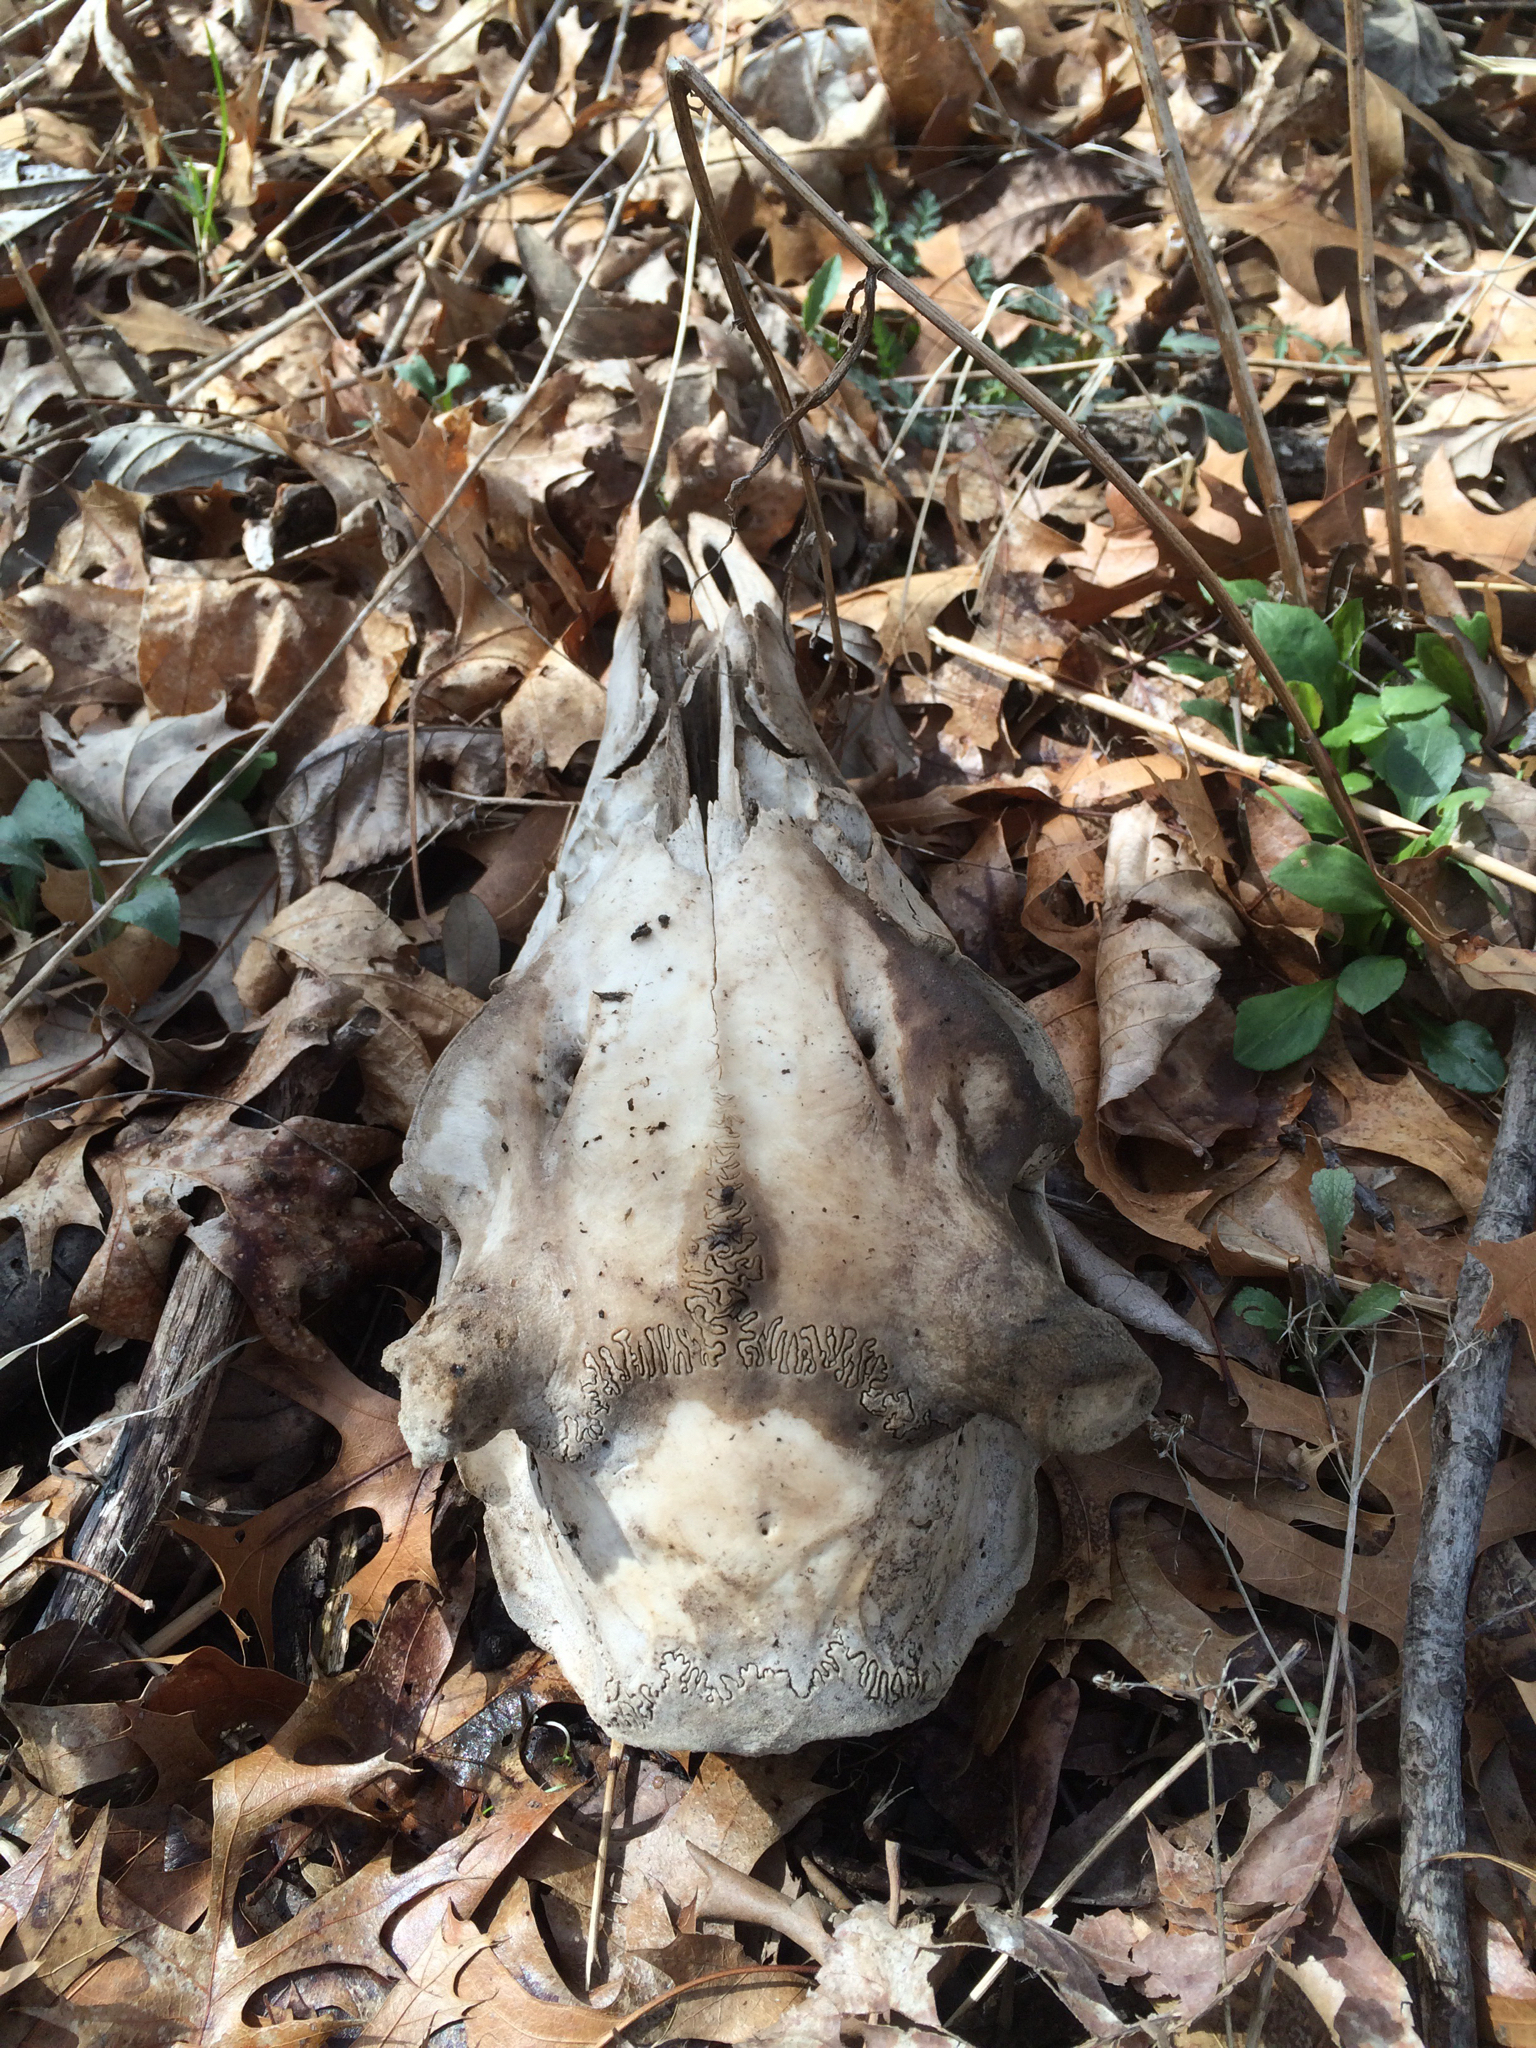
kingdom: Animalia
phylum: Chordata
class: Mammalia
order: Artiodactyla
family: Cervidae
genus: Odocoileus
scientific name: Odocoileus virginianus
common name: White-tailed deer
